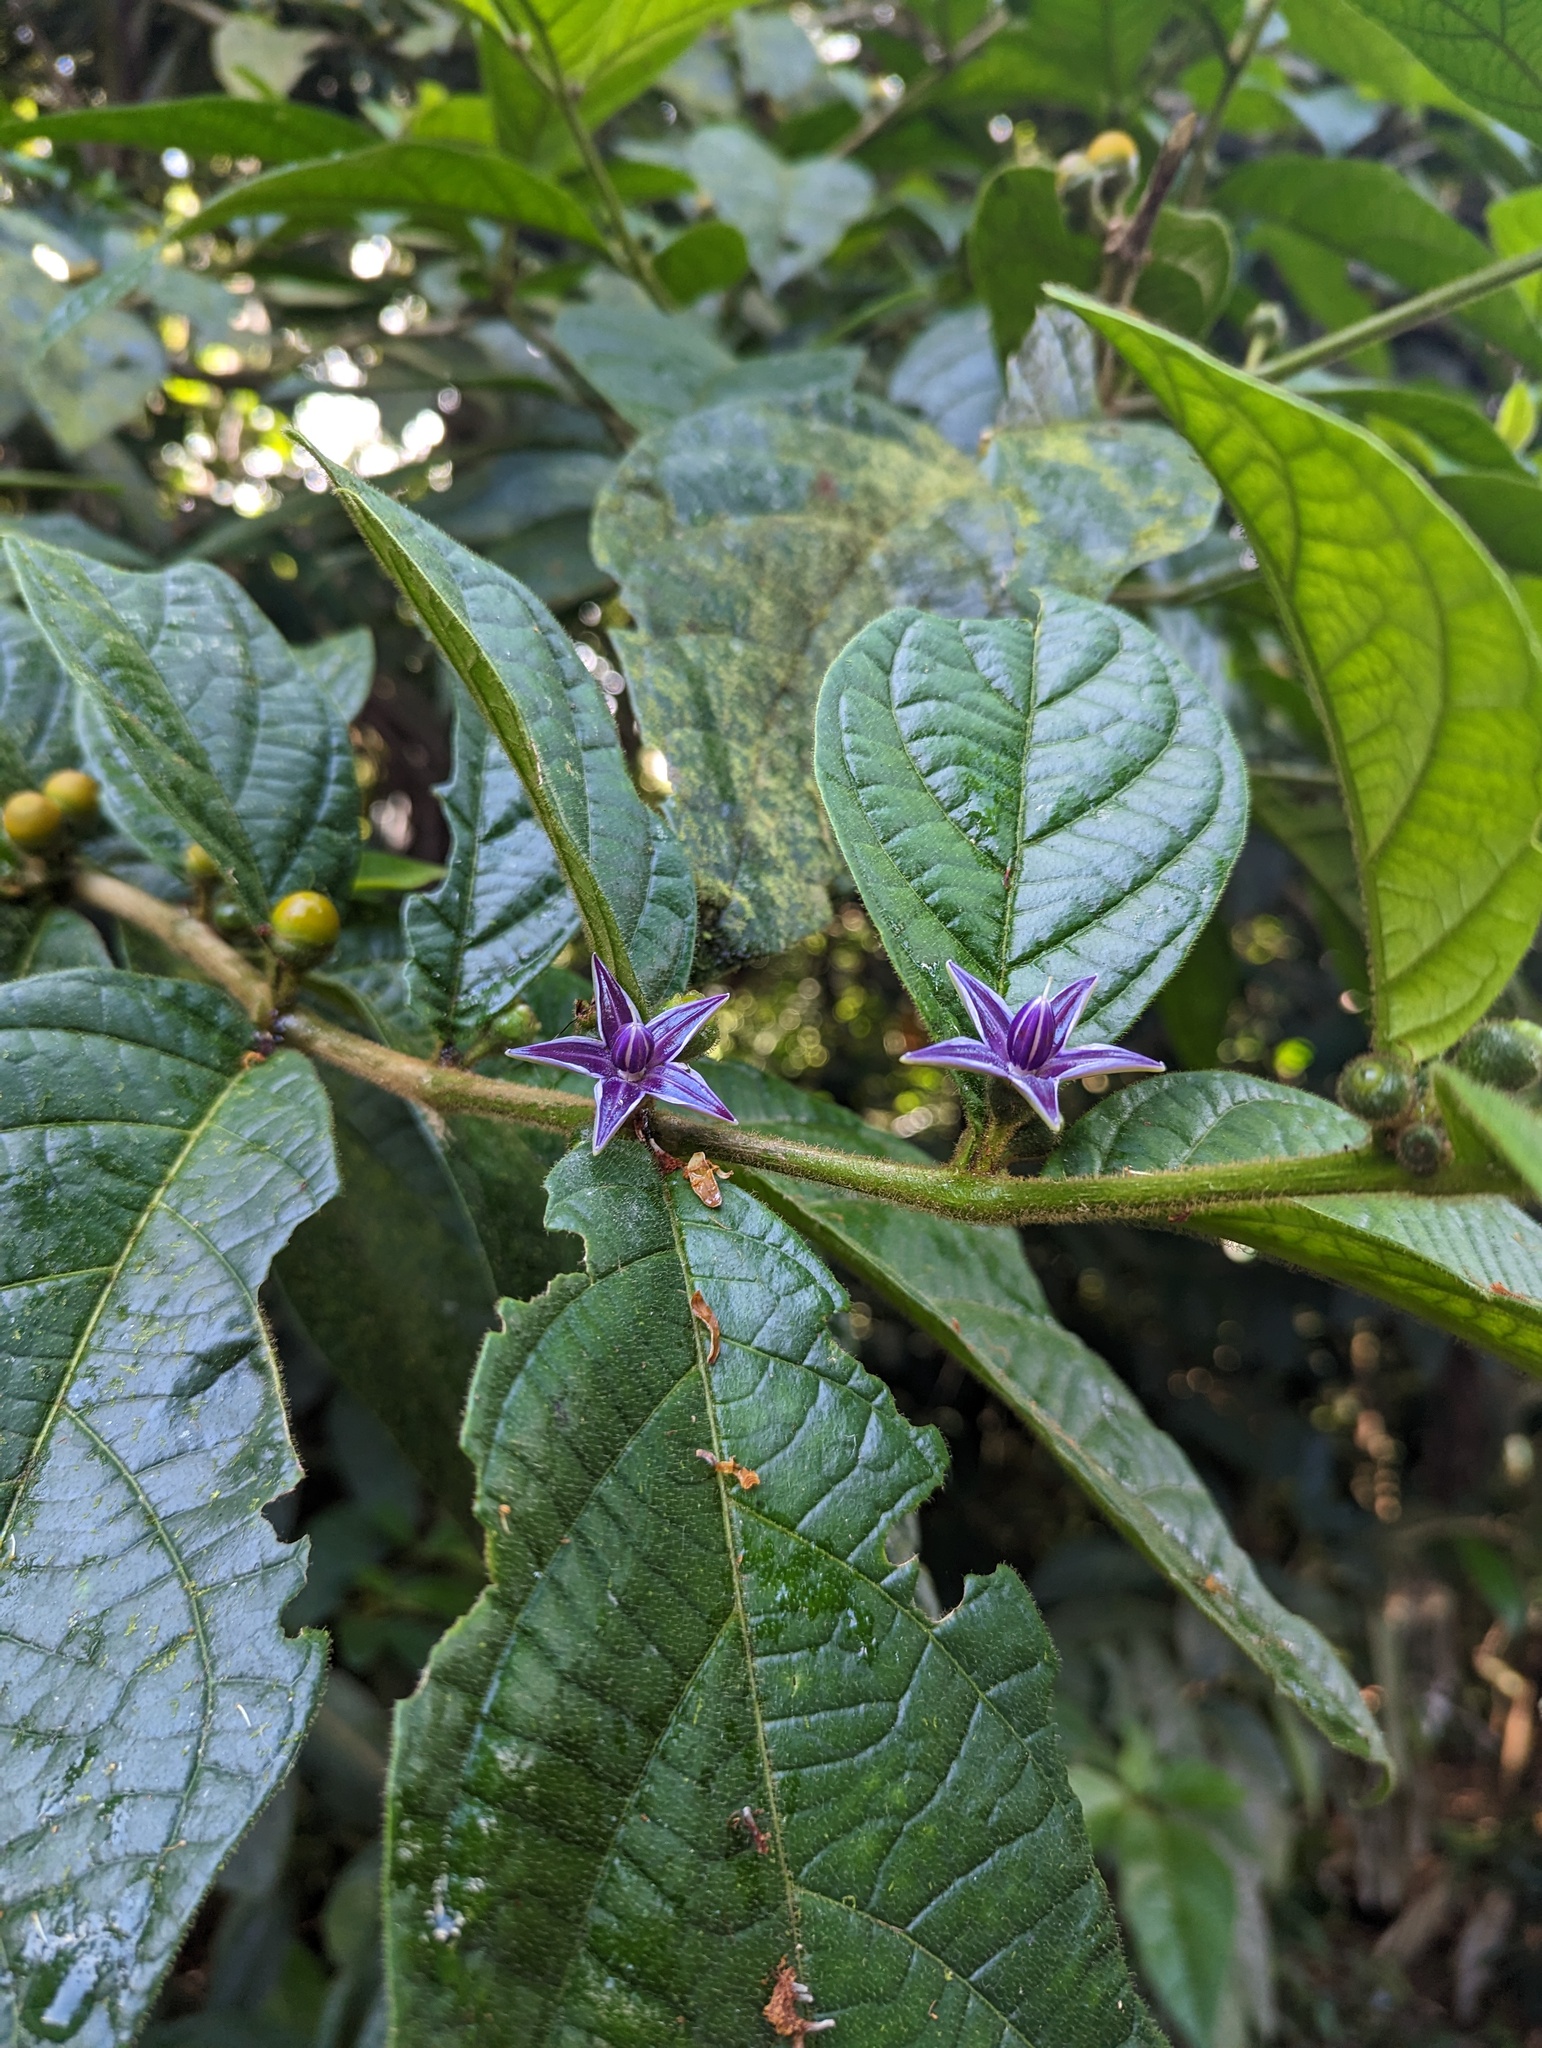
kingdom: Plantae
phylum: Tracheophyta
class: Magnoliopsida
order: Solanales
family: Solanaceae
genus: Lycianthes
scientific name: Lycianthes sanctaeclarae
